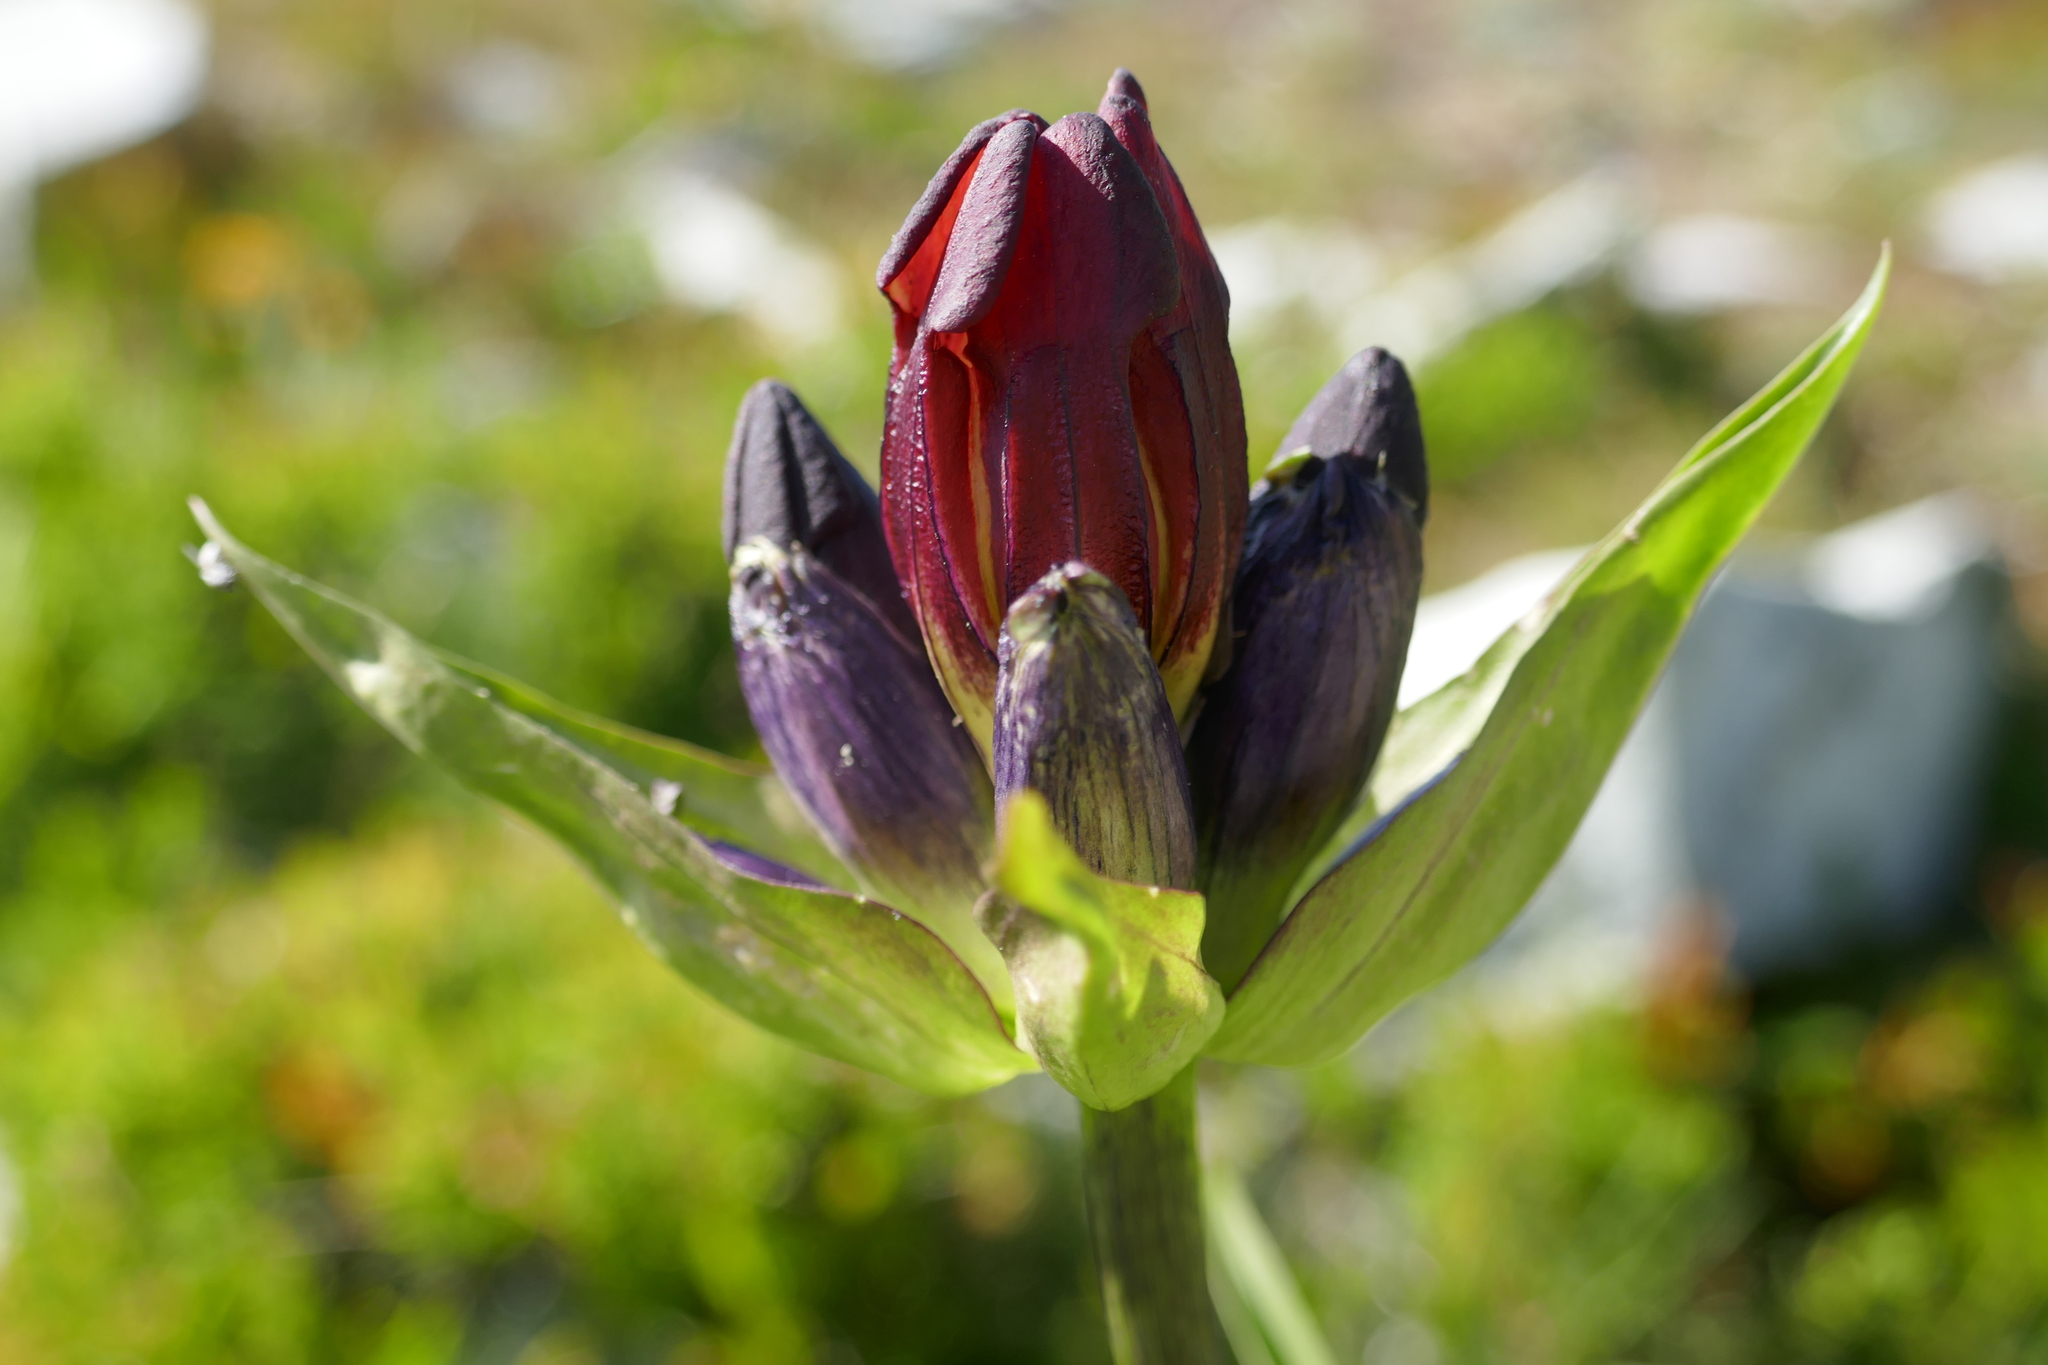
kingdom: Plantae
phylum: Tracheophyta
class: Magnoliopsida
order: Gentianales
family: Gentianaceae
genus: Gentiana
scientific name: Gentiana purpurea
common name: Purple gentian
